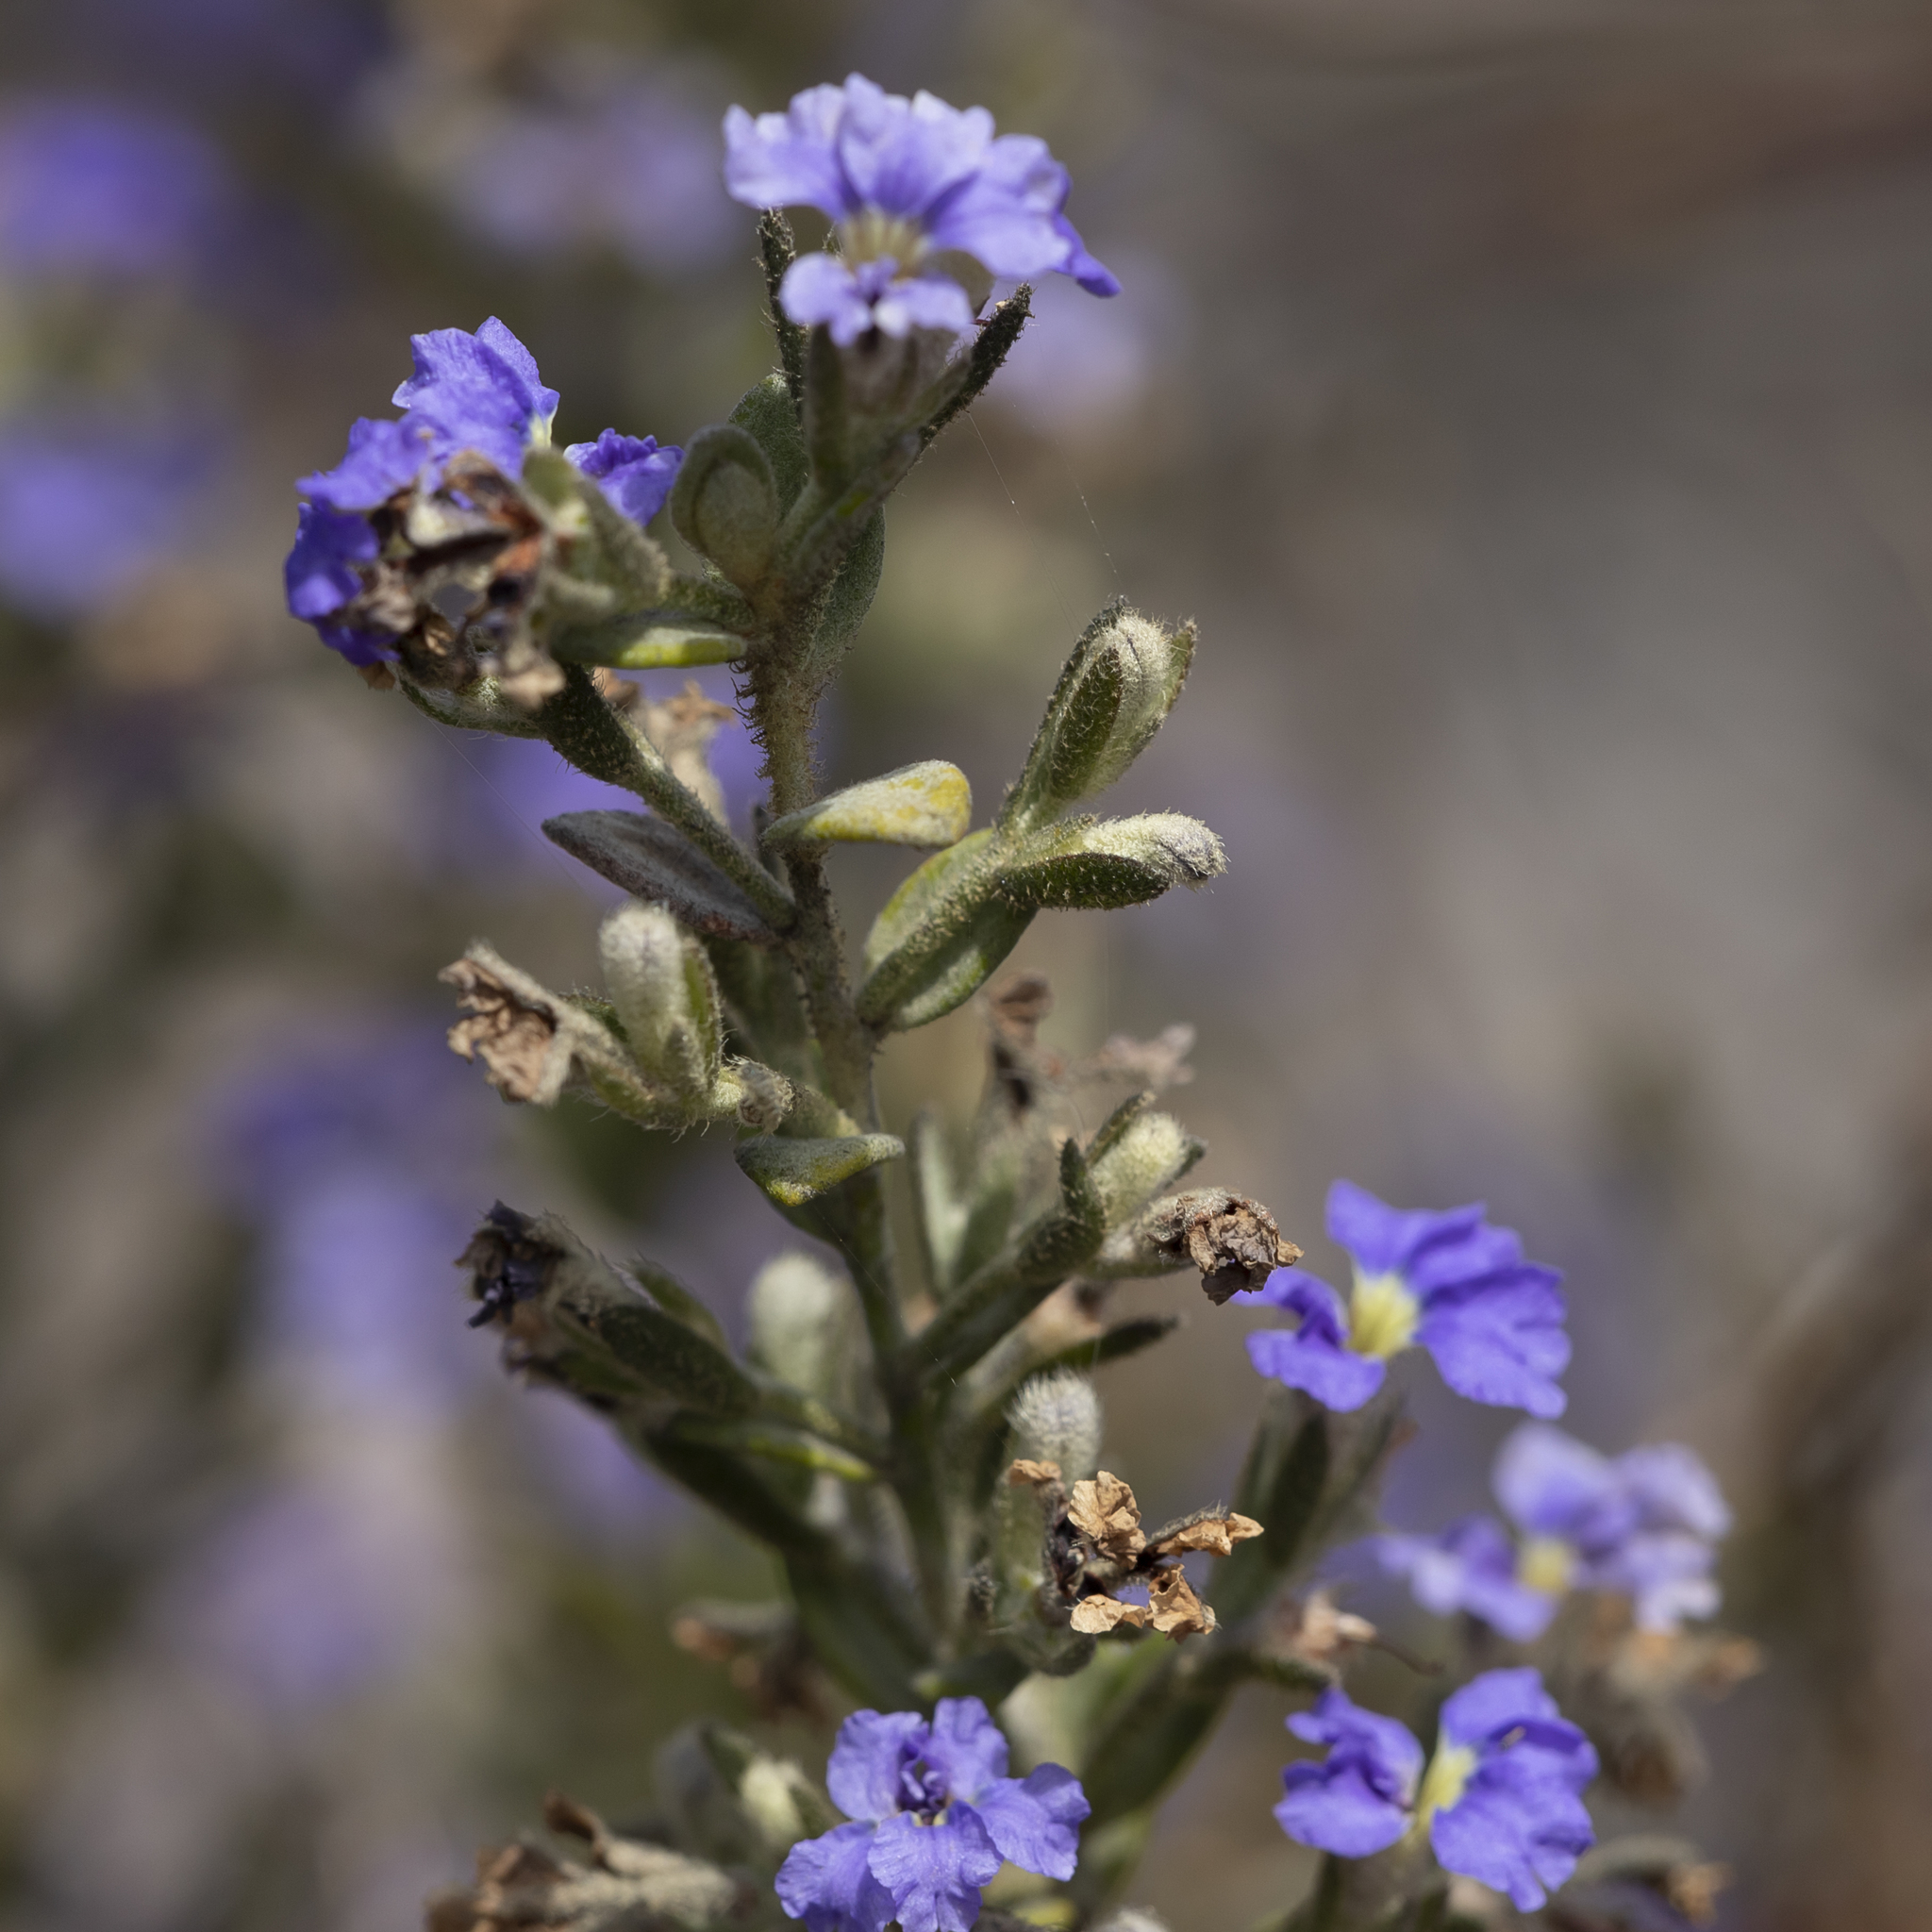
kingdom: Plantae
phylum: Tracheophyta
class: Magnoliopsida
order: Asterales
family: Goodeniaceae
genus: Dampiera
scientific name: Dampiera marifolia
